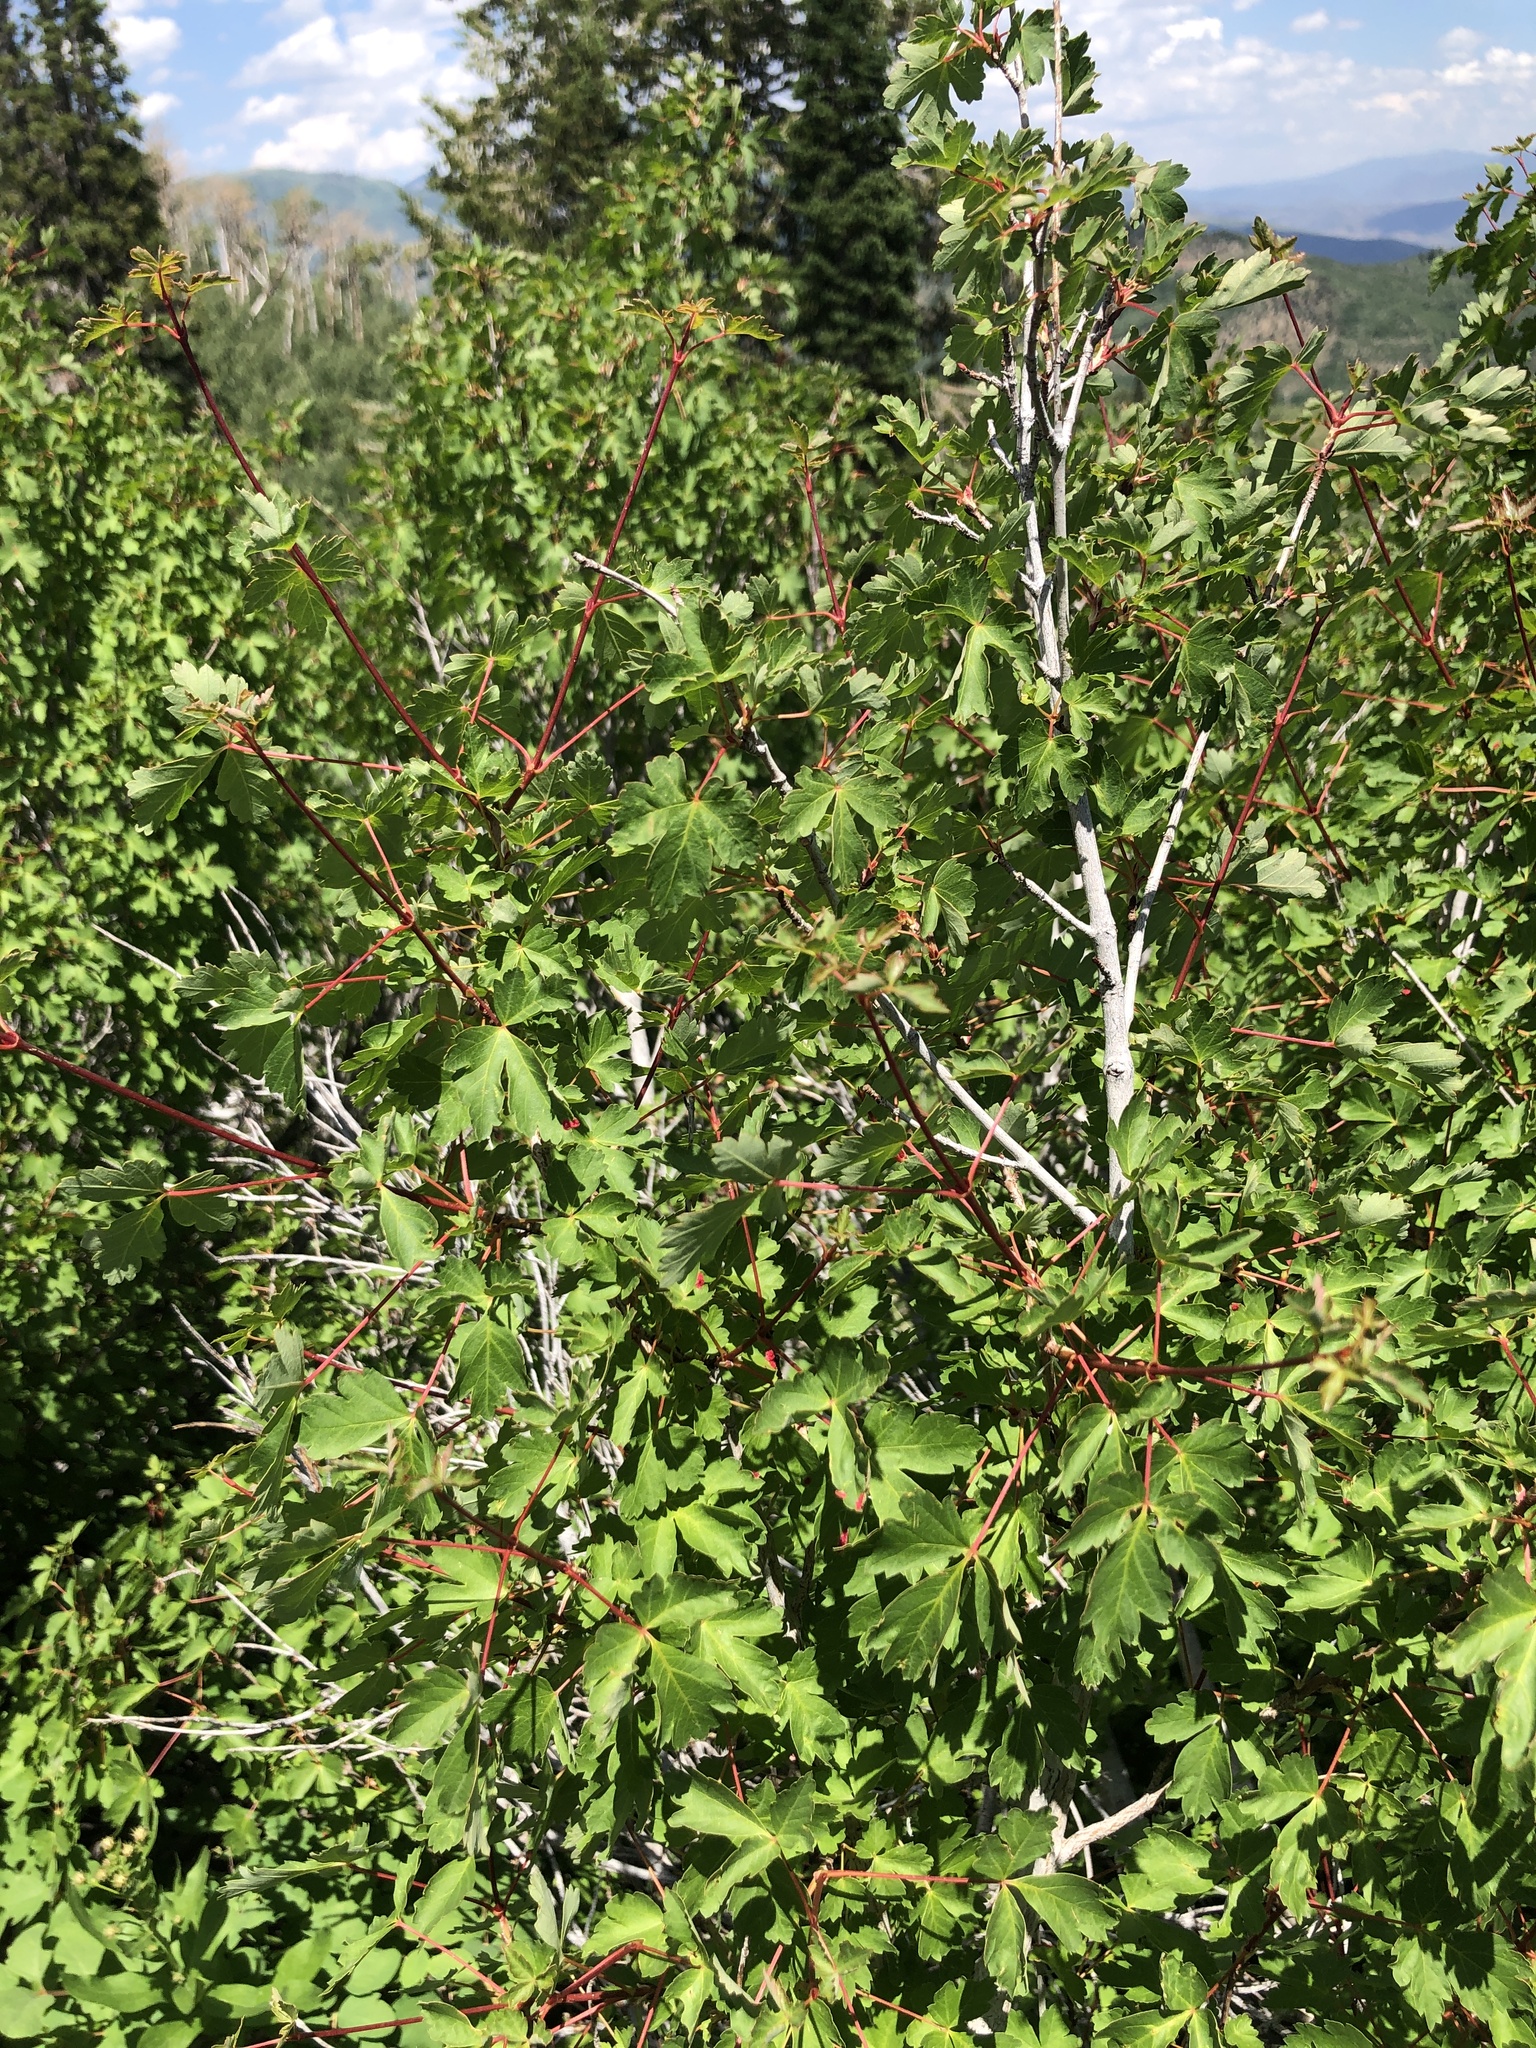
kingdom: Plantae
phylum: Tracheophyta
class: Magnoliopsida
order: Sapindales
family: Sapindaceae
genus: Acer
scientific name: Acer glabrum
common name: Rocky mountain maple
